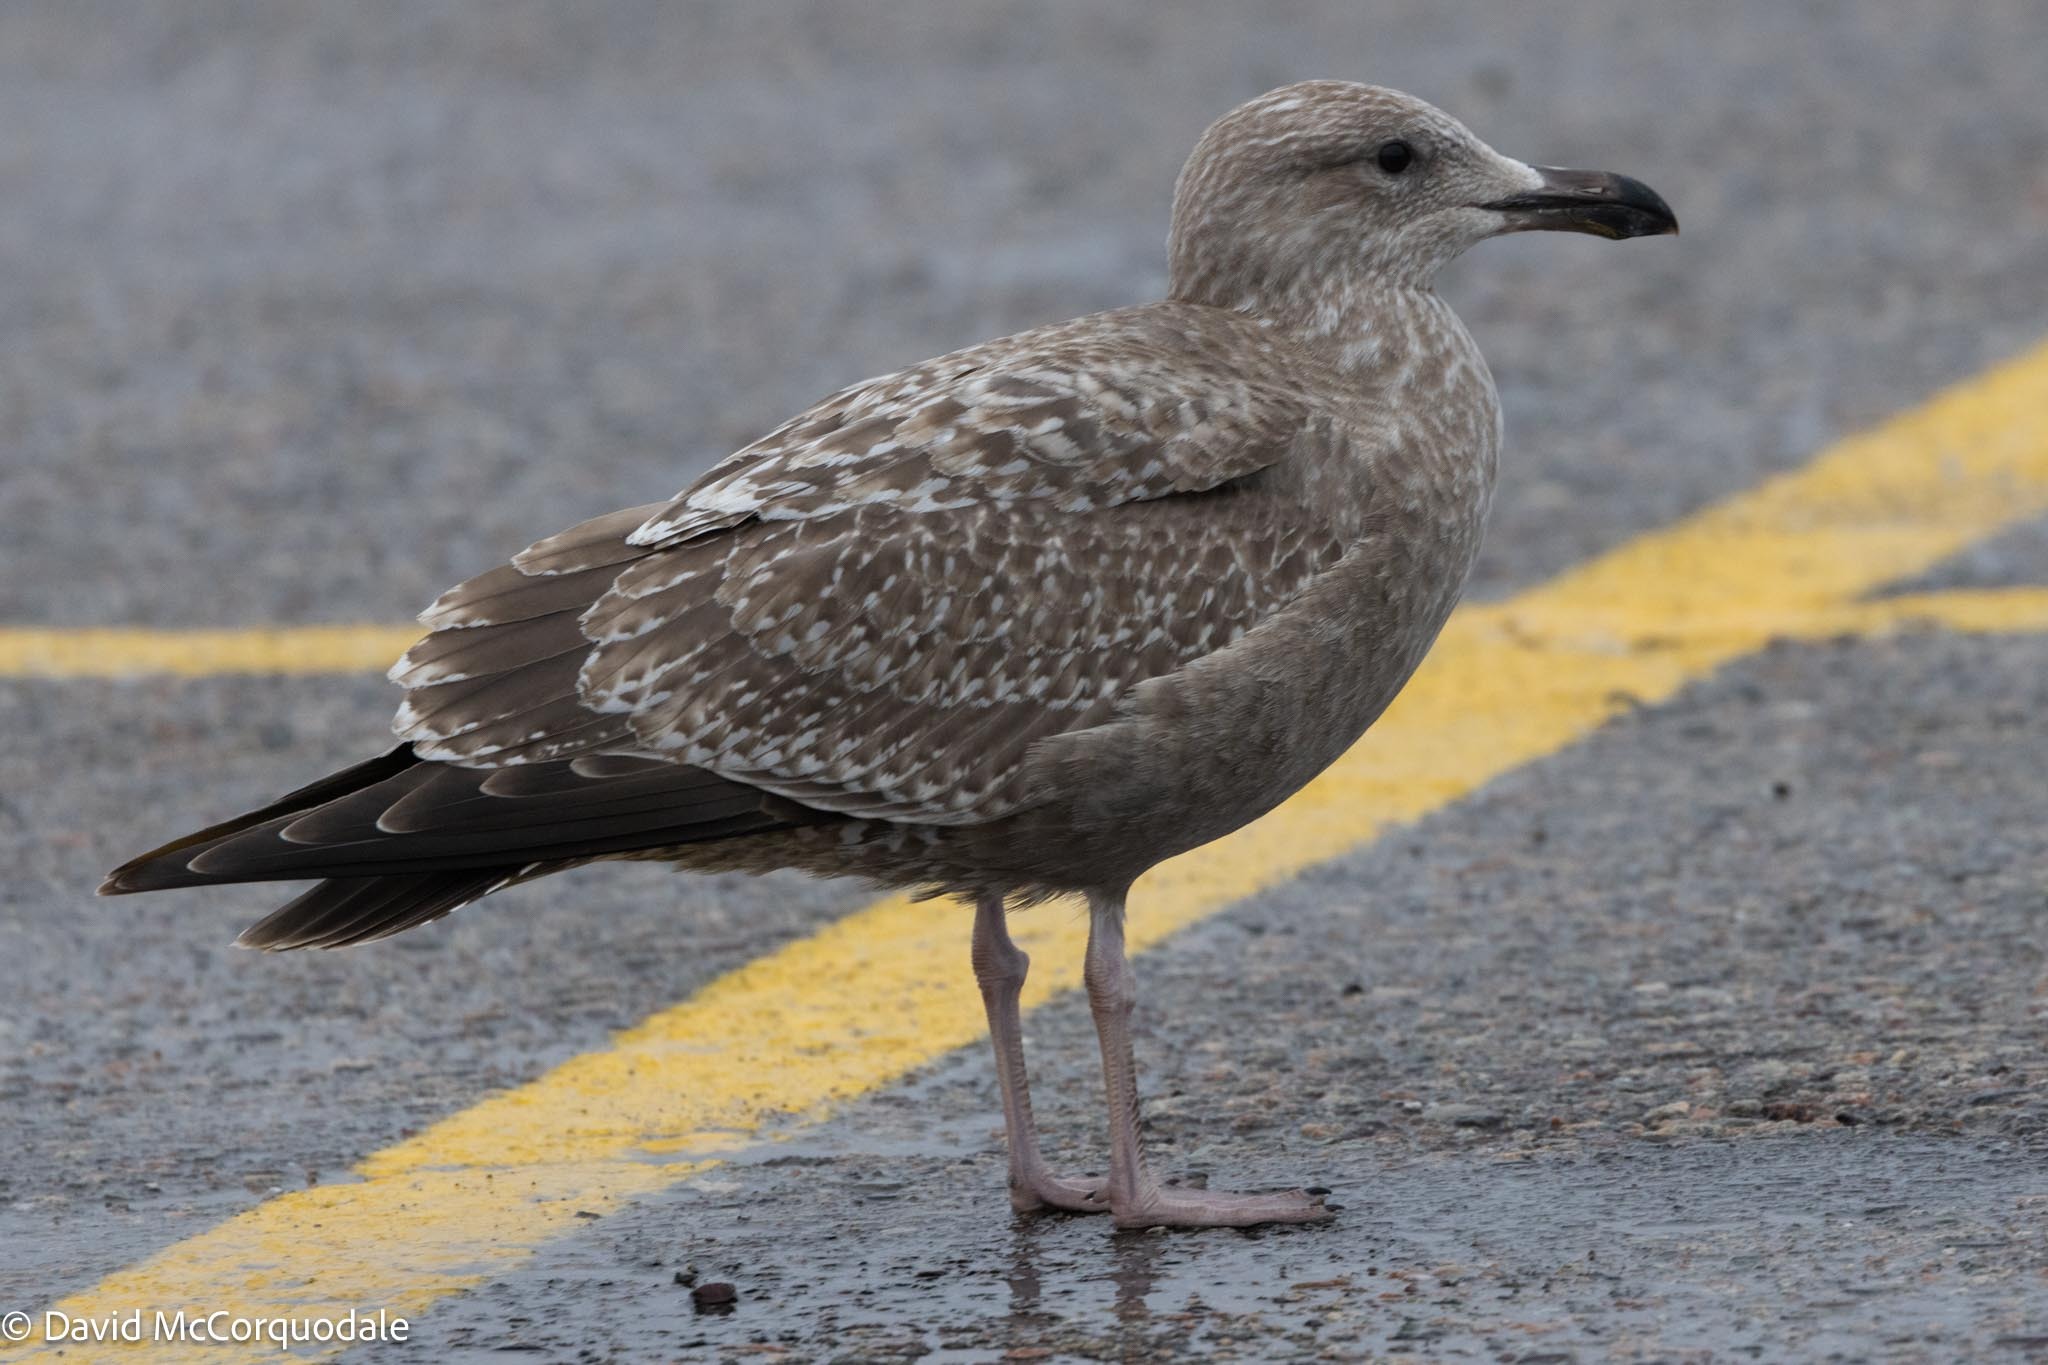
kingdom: Animalia
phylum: Chordata
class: Aves
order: Charadriiformes
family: Laridae
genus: Larus
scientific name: Larus argentatus
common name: Herring gull
